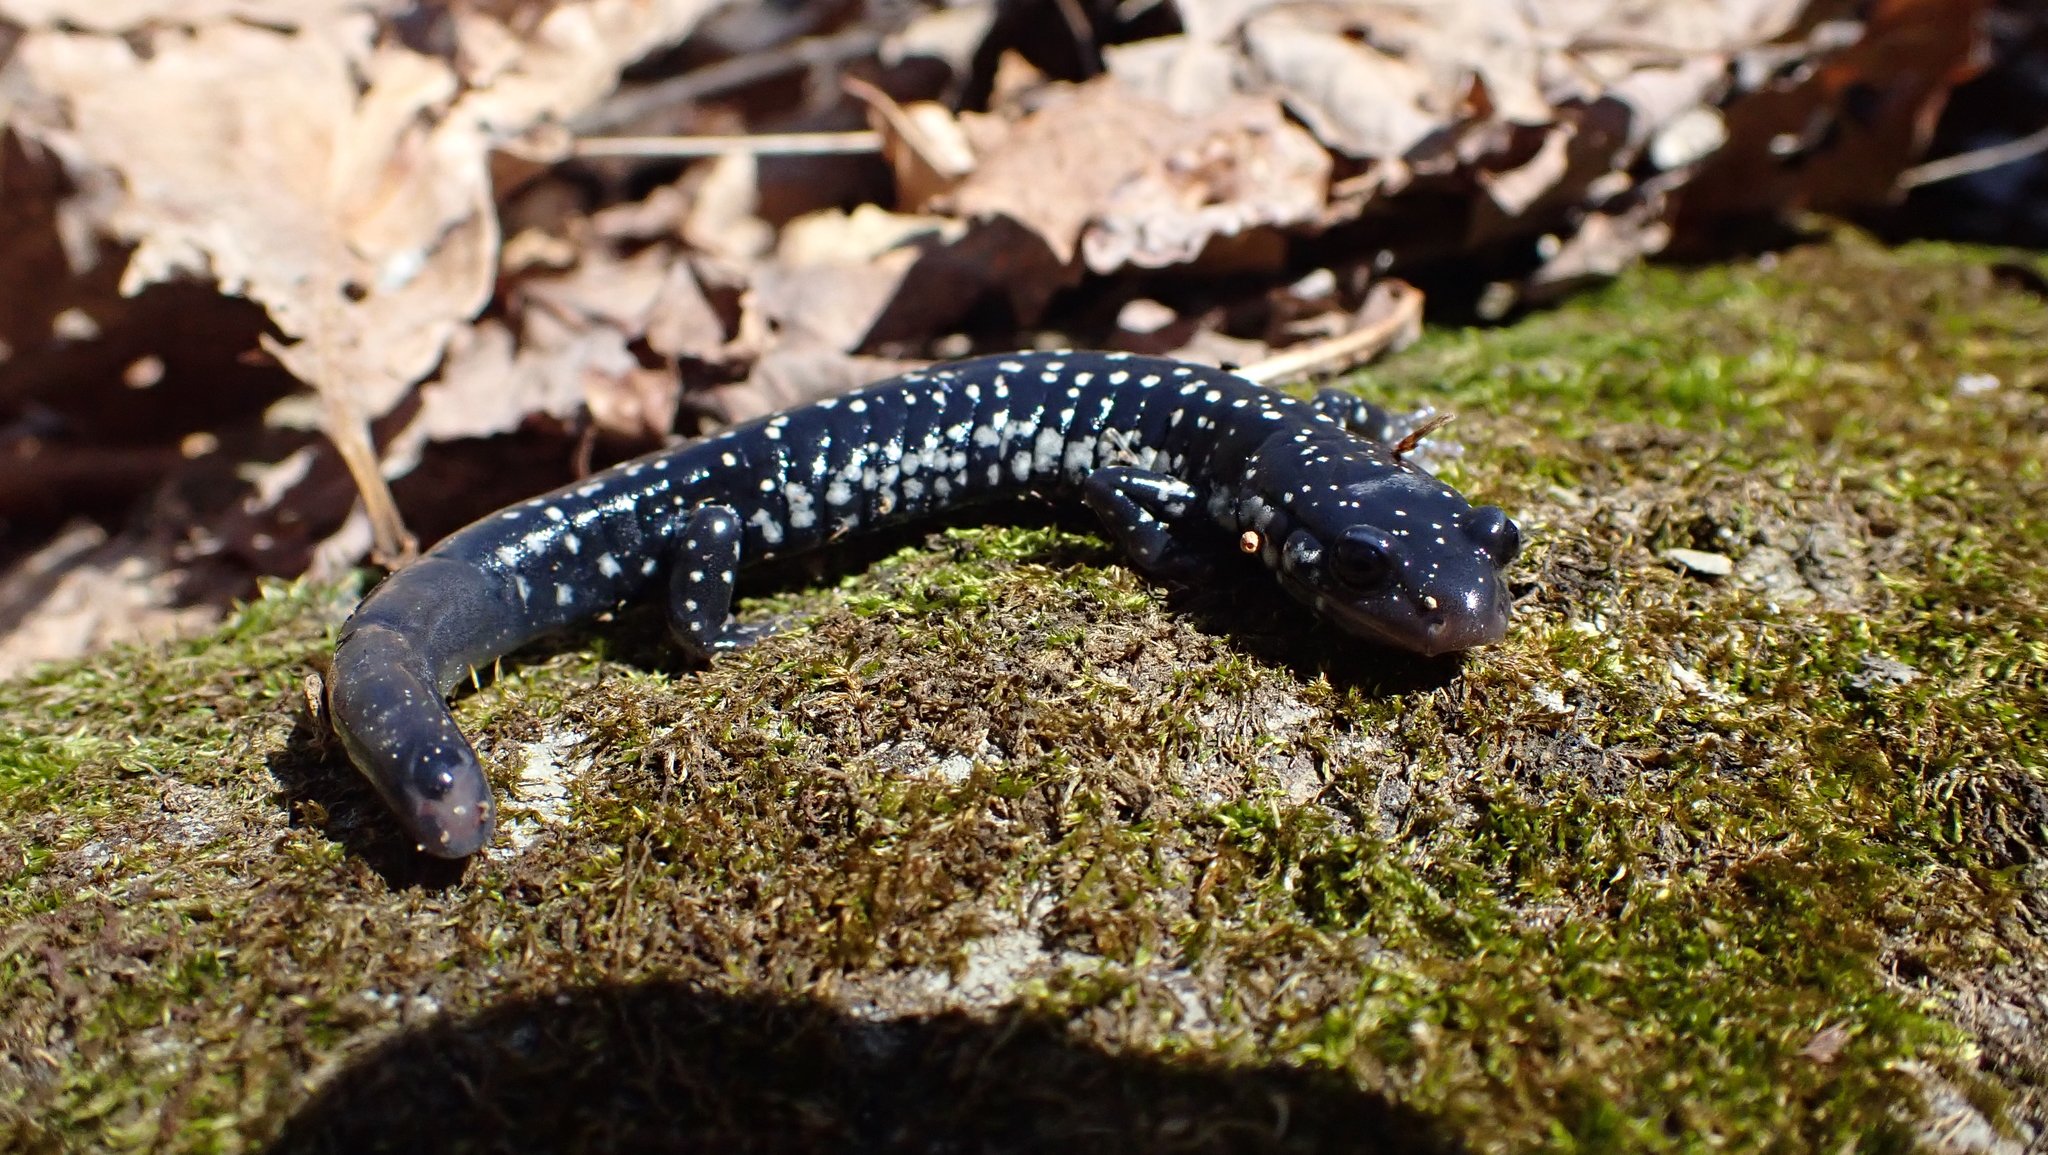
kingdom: Animalia
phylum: Chordata
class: Amphibia
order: Caudata
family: Plethodontidae
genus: Plethodon
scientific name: Plethodon glutinosus
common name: Northern slimy salamander
